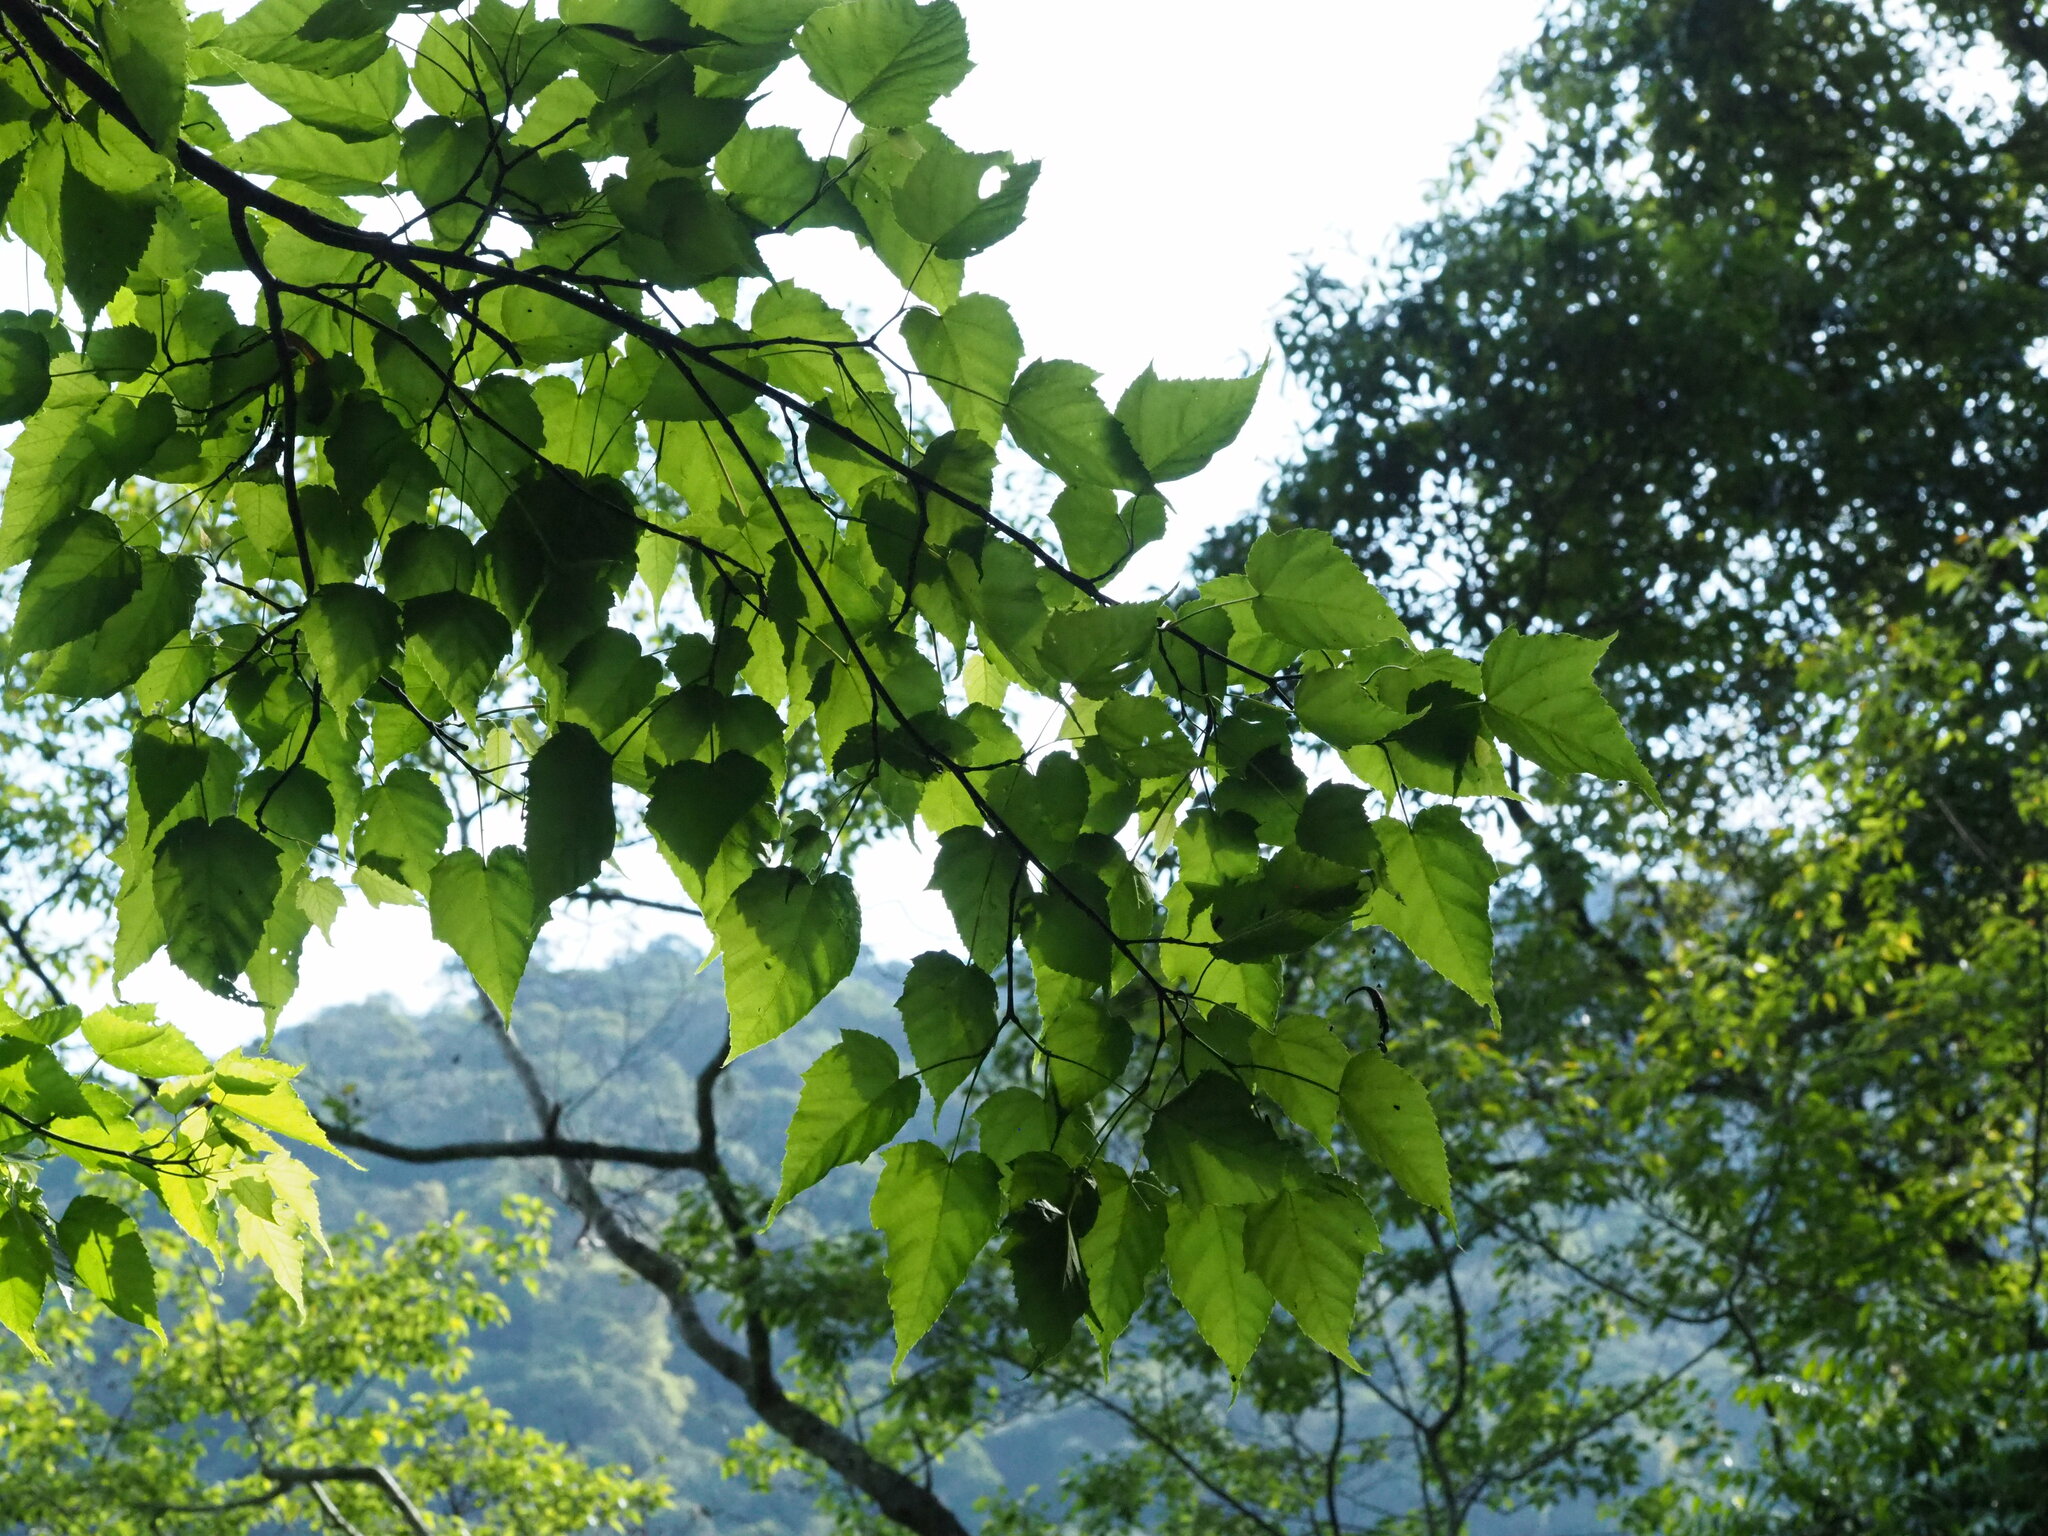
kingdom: Plantae
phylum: Tracheophyta
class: Magnoliopsida
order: Sapindales
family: Sapindaceae
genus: Acer
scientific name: Acer caudatifolium
